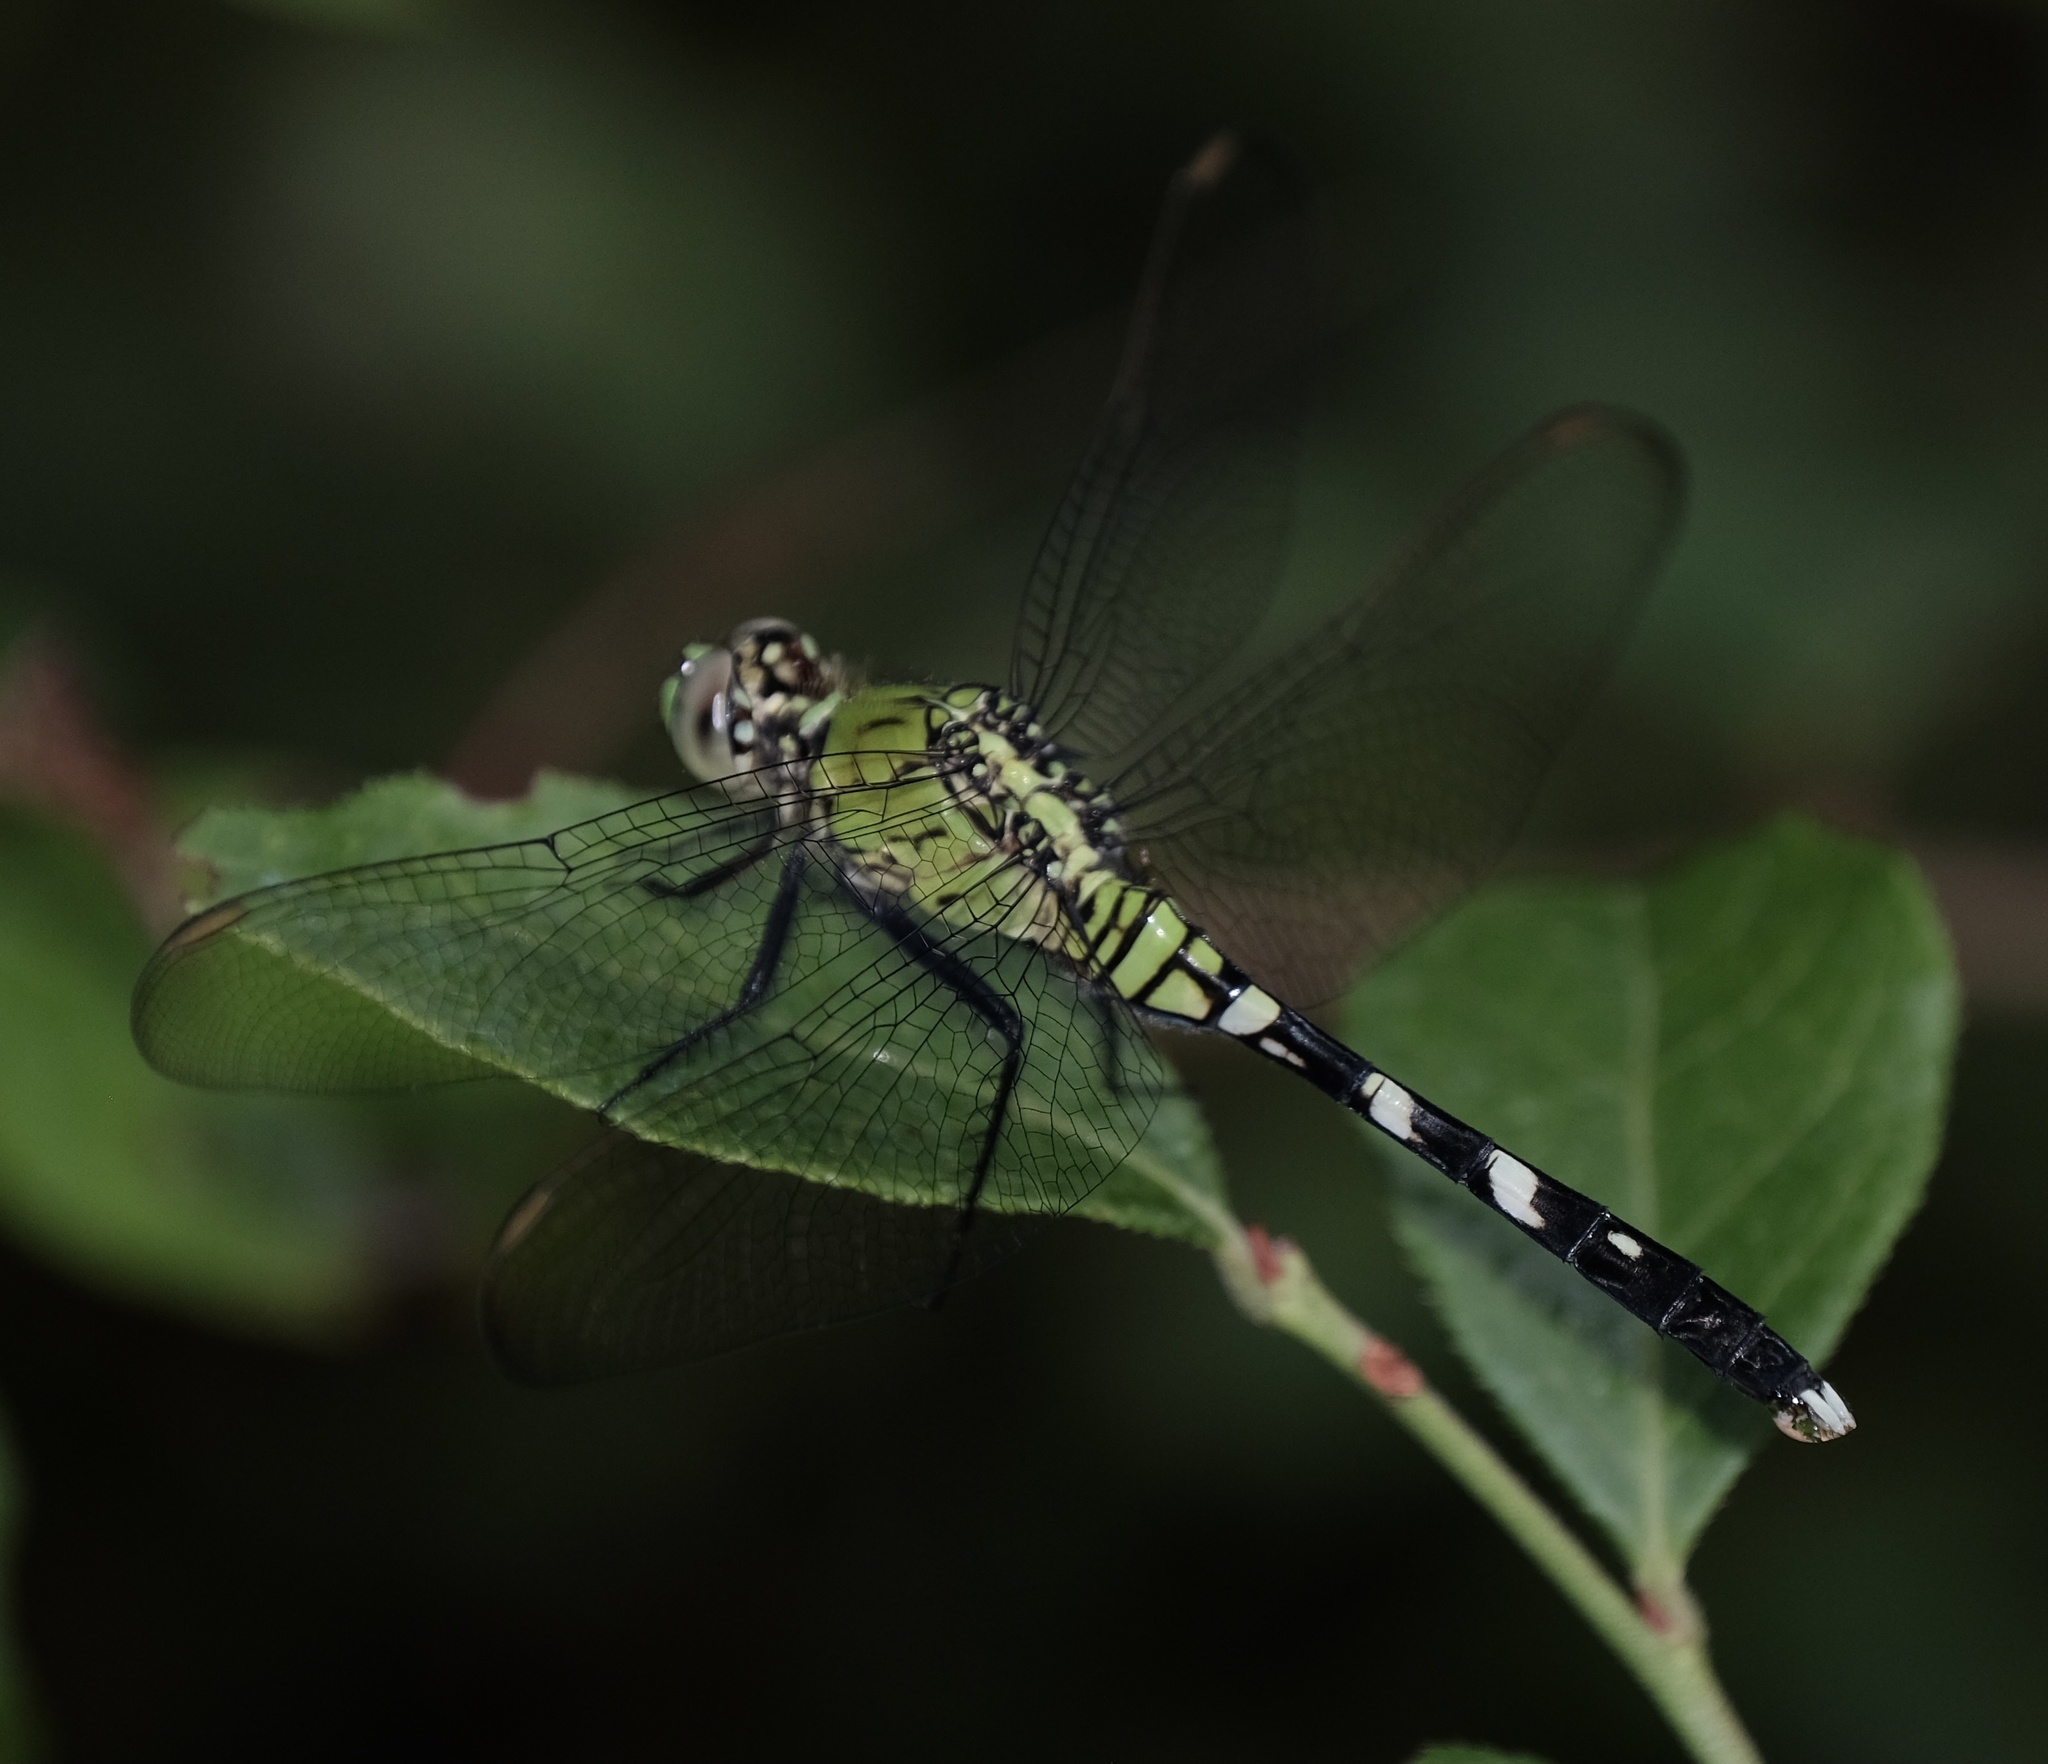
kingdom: Animalia
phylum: Arthropoda
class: Insecta
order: Odonata
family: Libellulidae
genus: Erythemis
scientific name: Erythemis simplicicollis
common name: Eastern pondhawk
